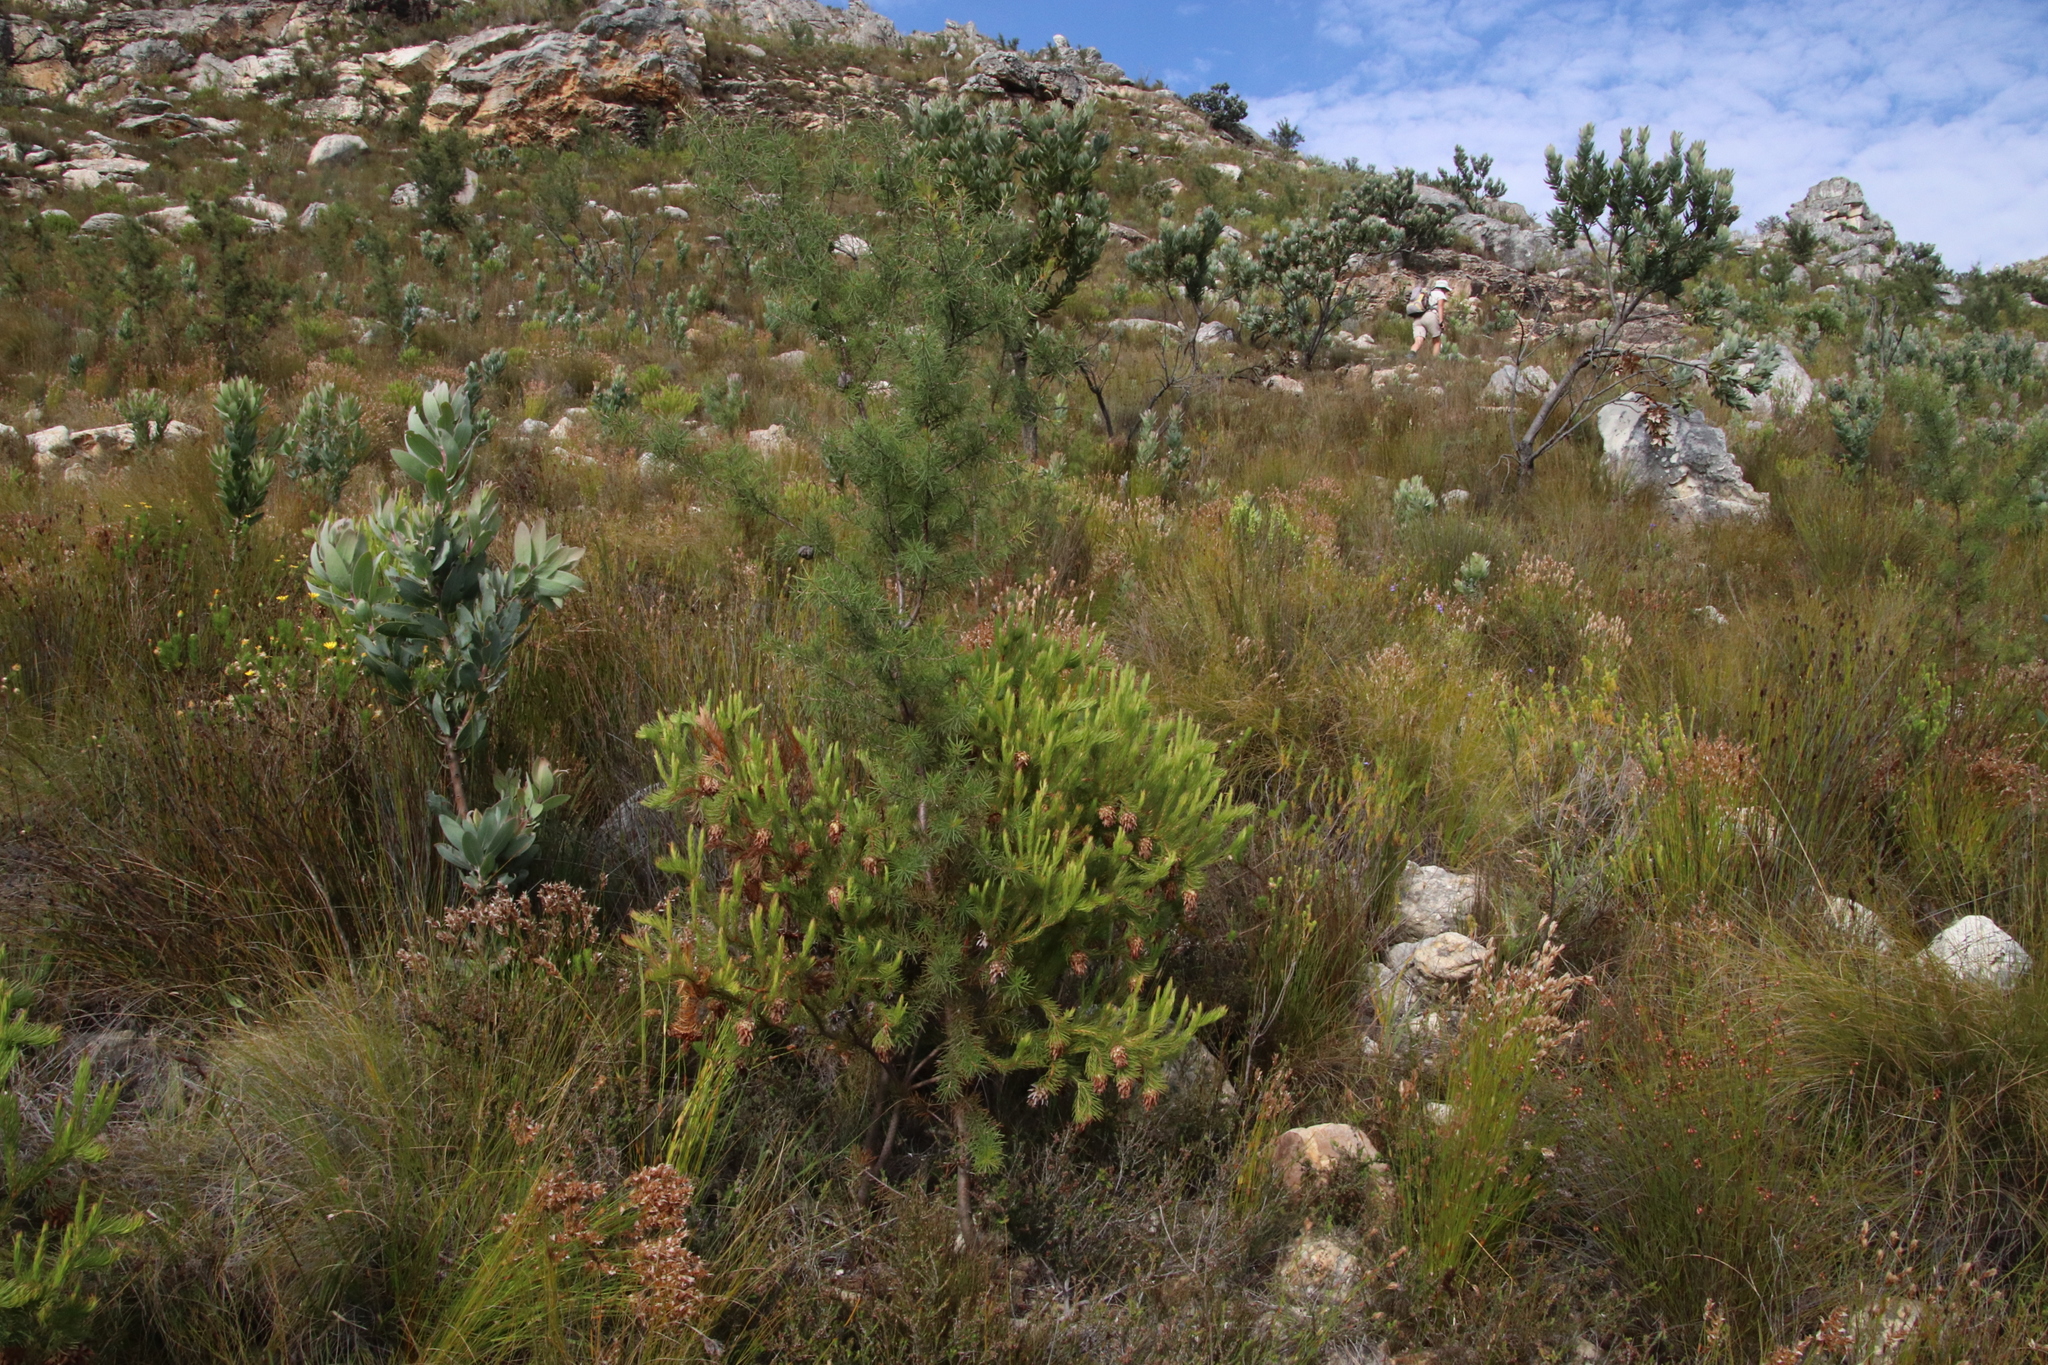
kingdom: Plantae
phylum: Tracheophyta
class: Magnoliopsida
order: Proteales
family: Proteaceae
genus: Protea
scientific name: Protea nana
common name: Mountain rose
